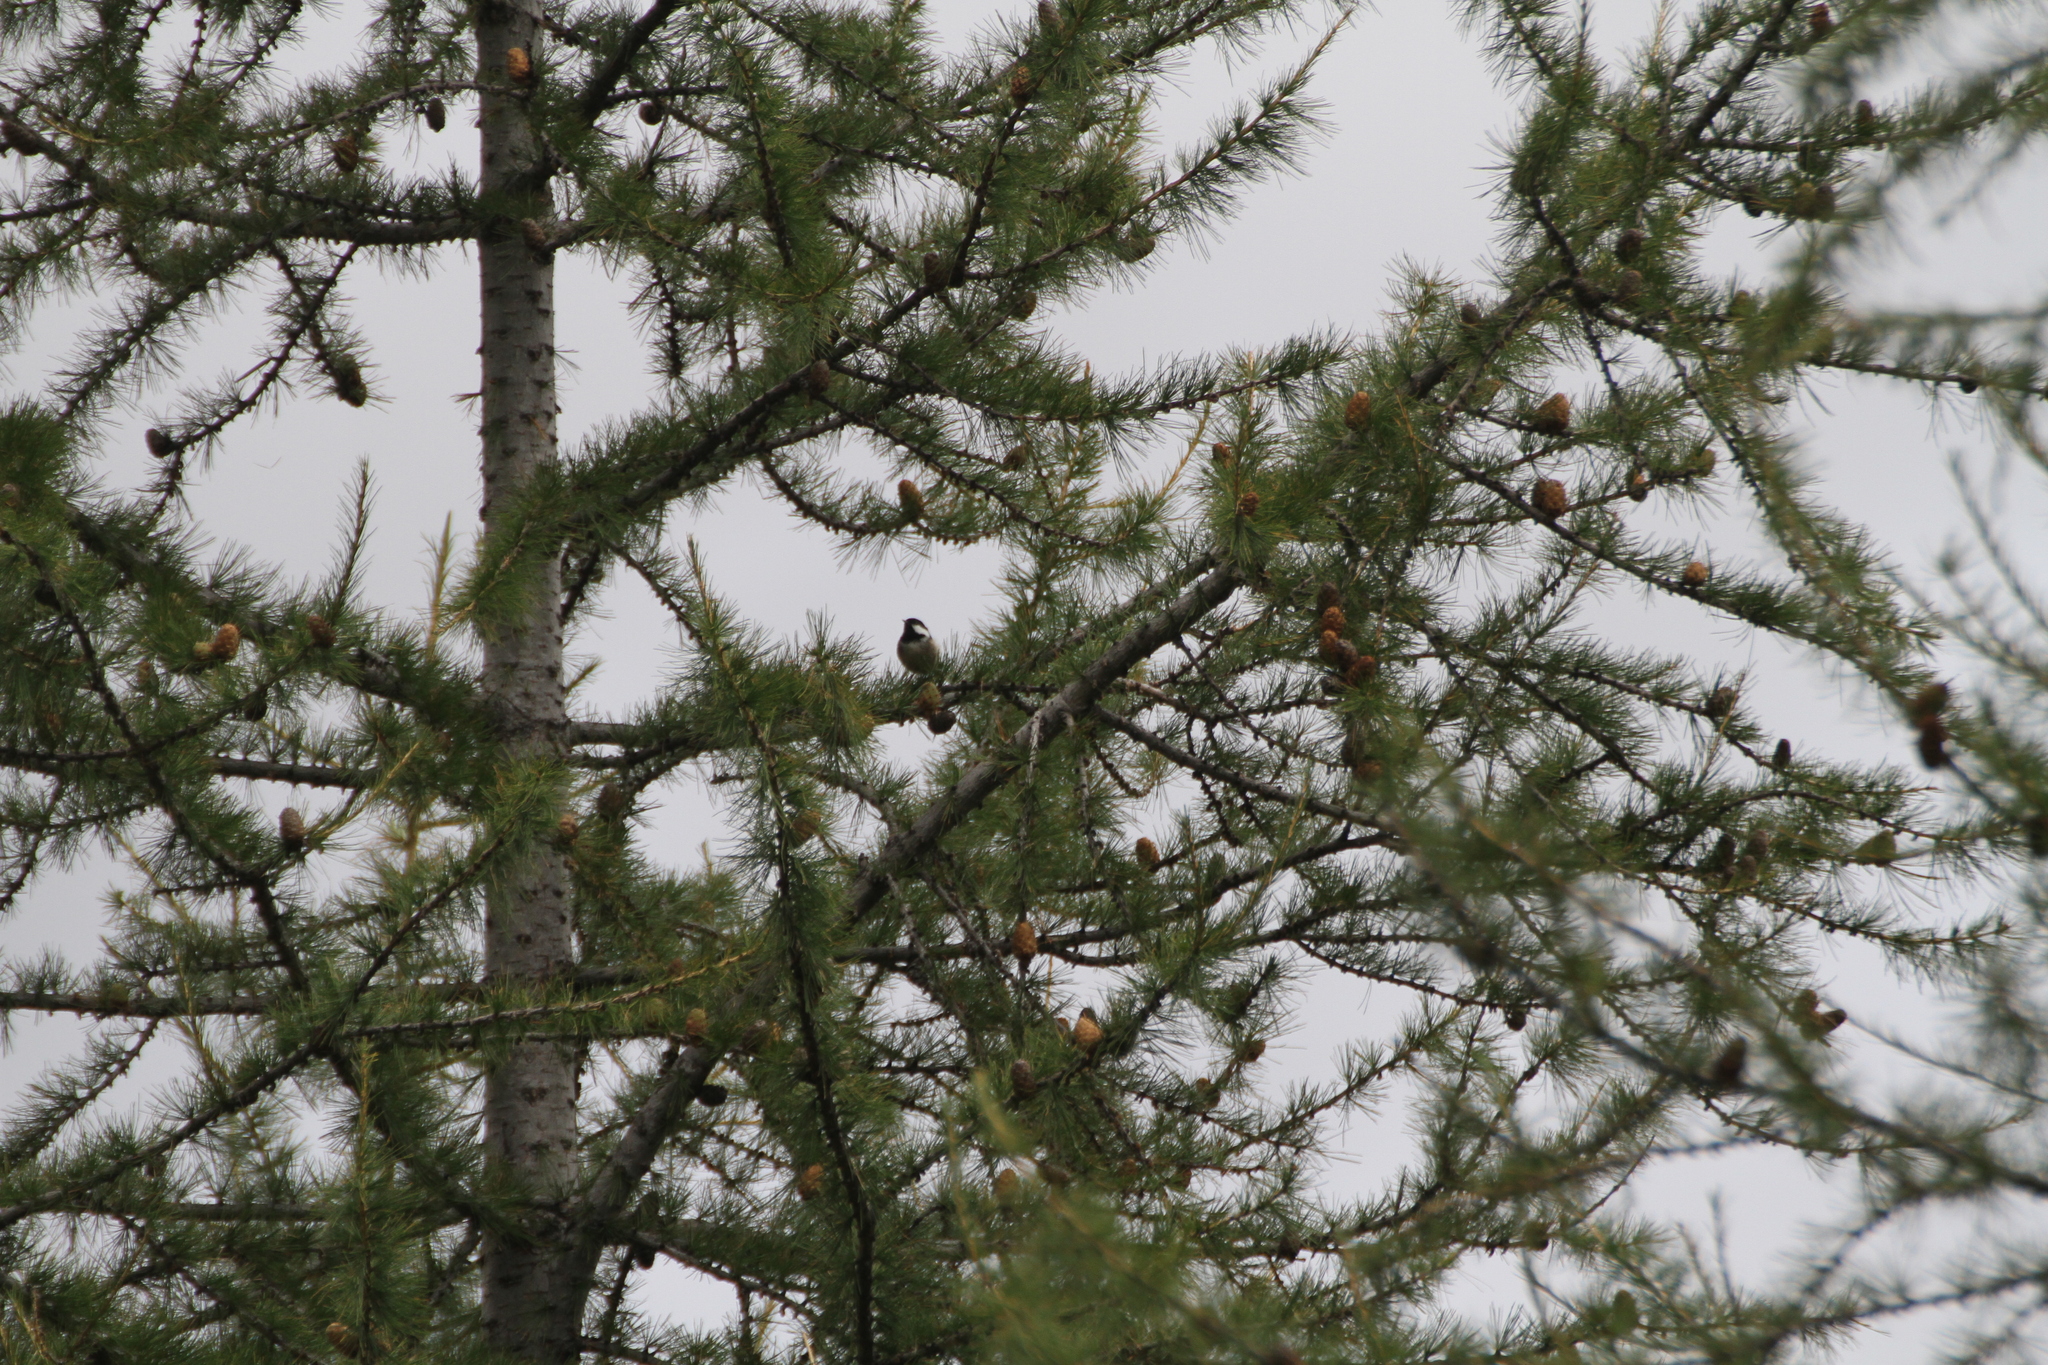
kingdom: Animalia
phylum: Chordata
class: Aves
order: Passeriformes
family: Paridae
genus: Periparus
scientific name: Periparus ater
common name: Coal tit
